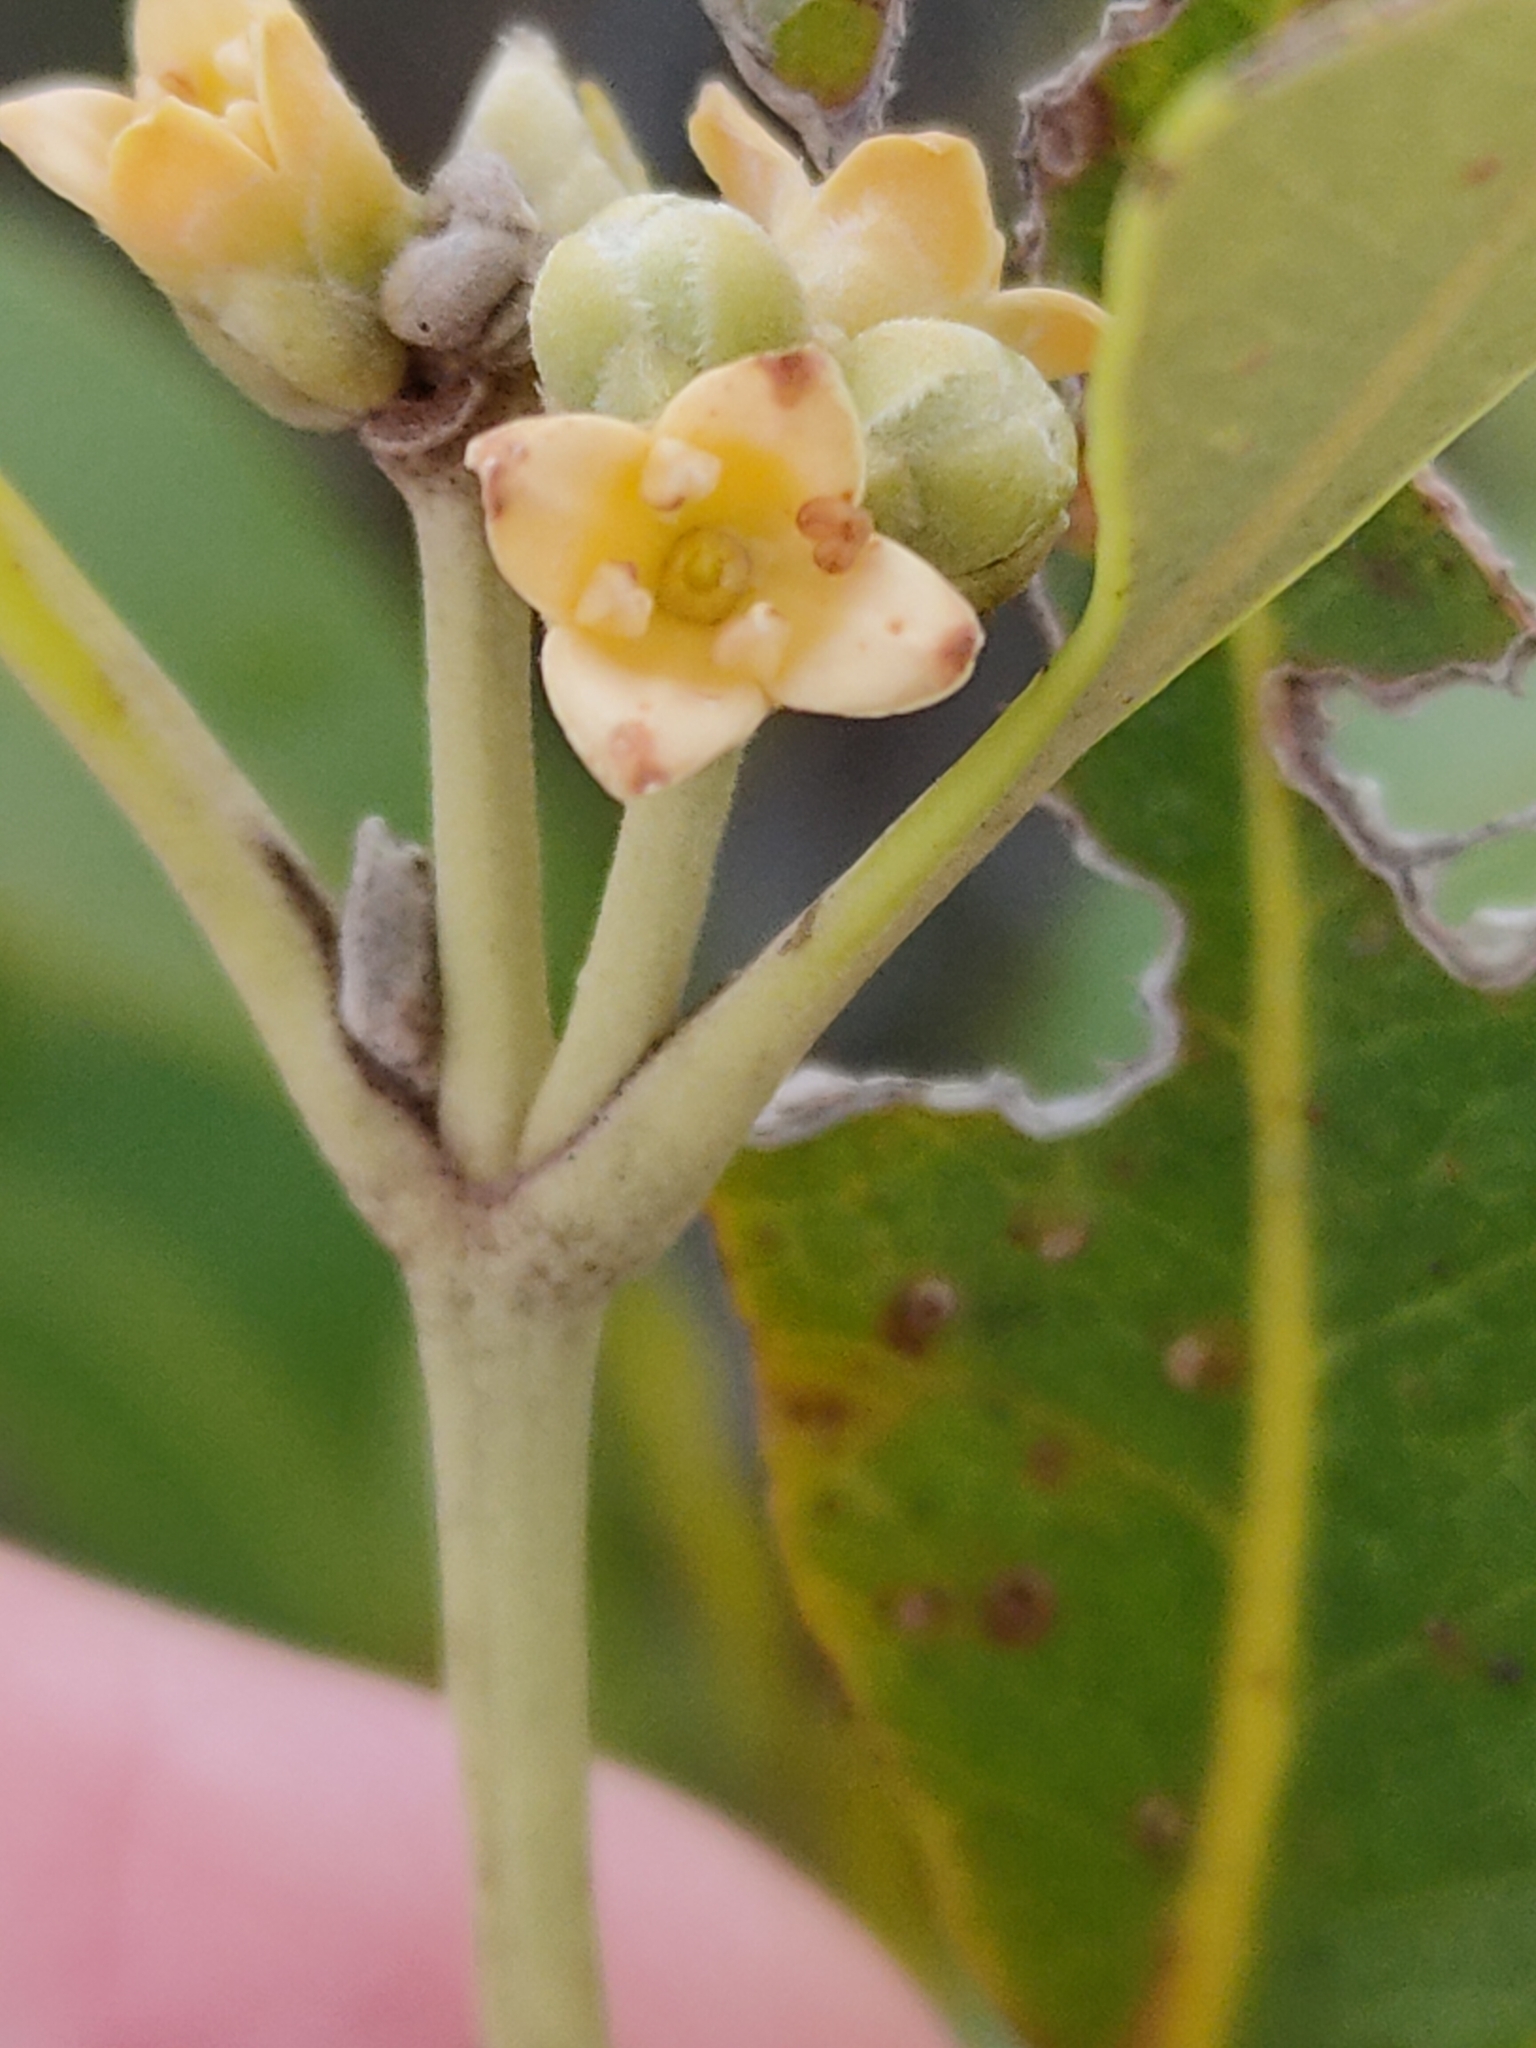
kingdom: Plantae
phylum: Tracheophyta
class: Magnoliopsida
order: Lamiales
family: Acanthaceae
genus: Avicennia
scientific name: Avicennia marina
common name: Gray mangrove
